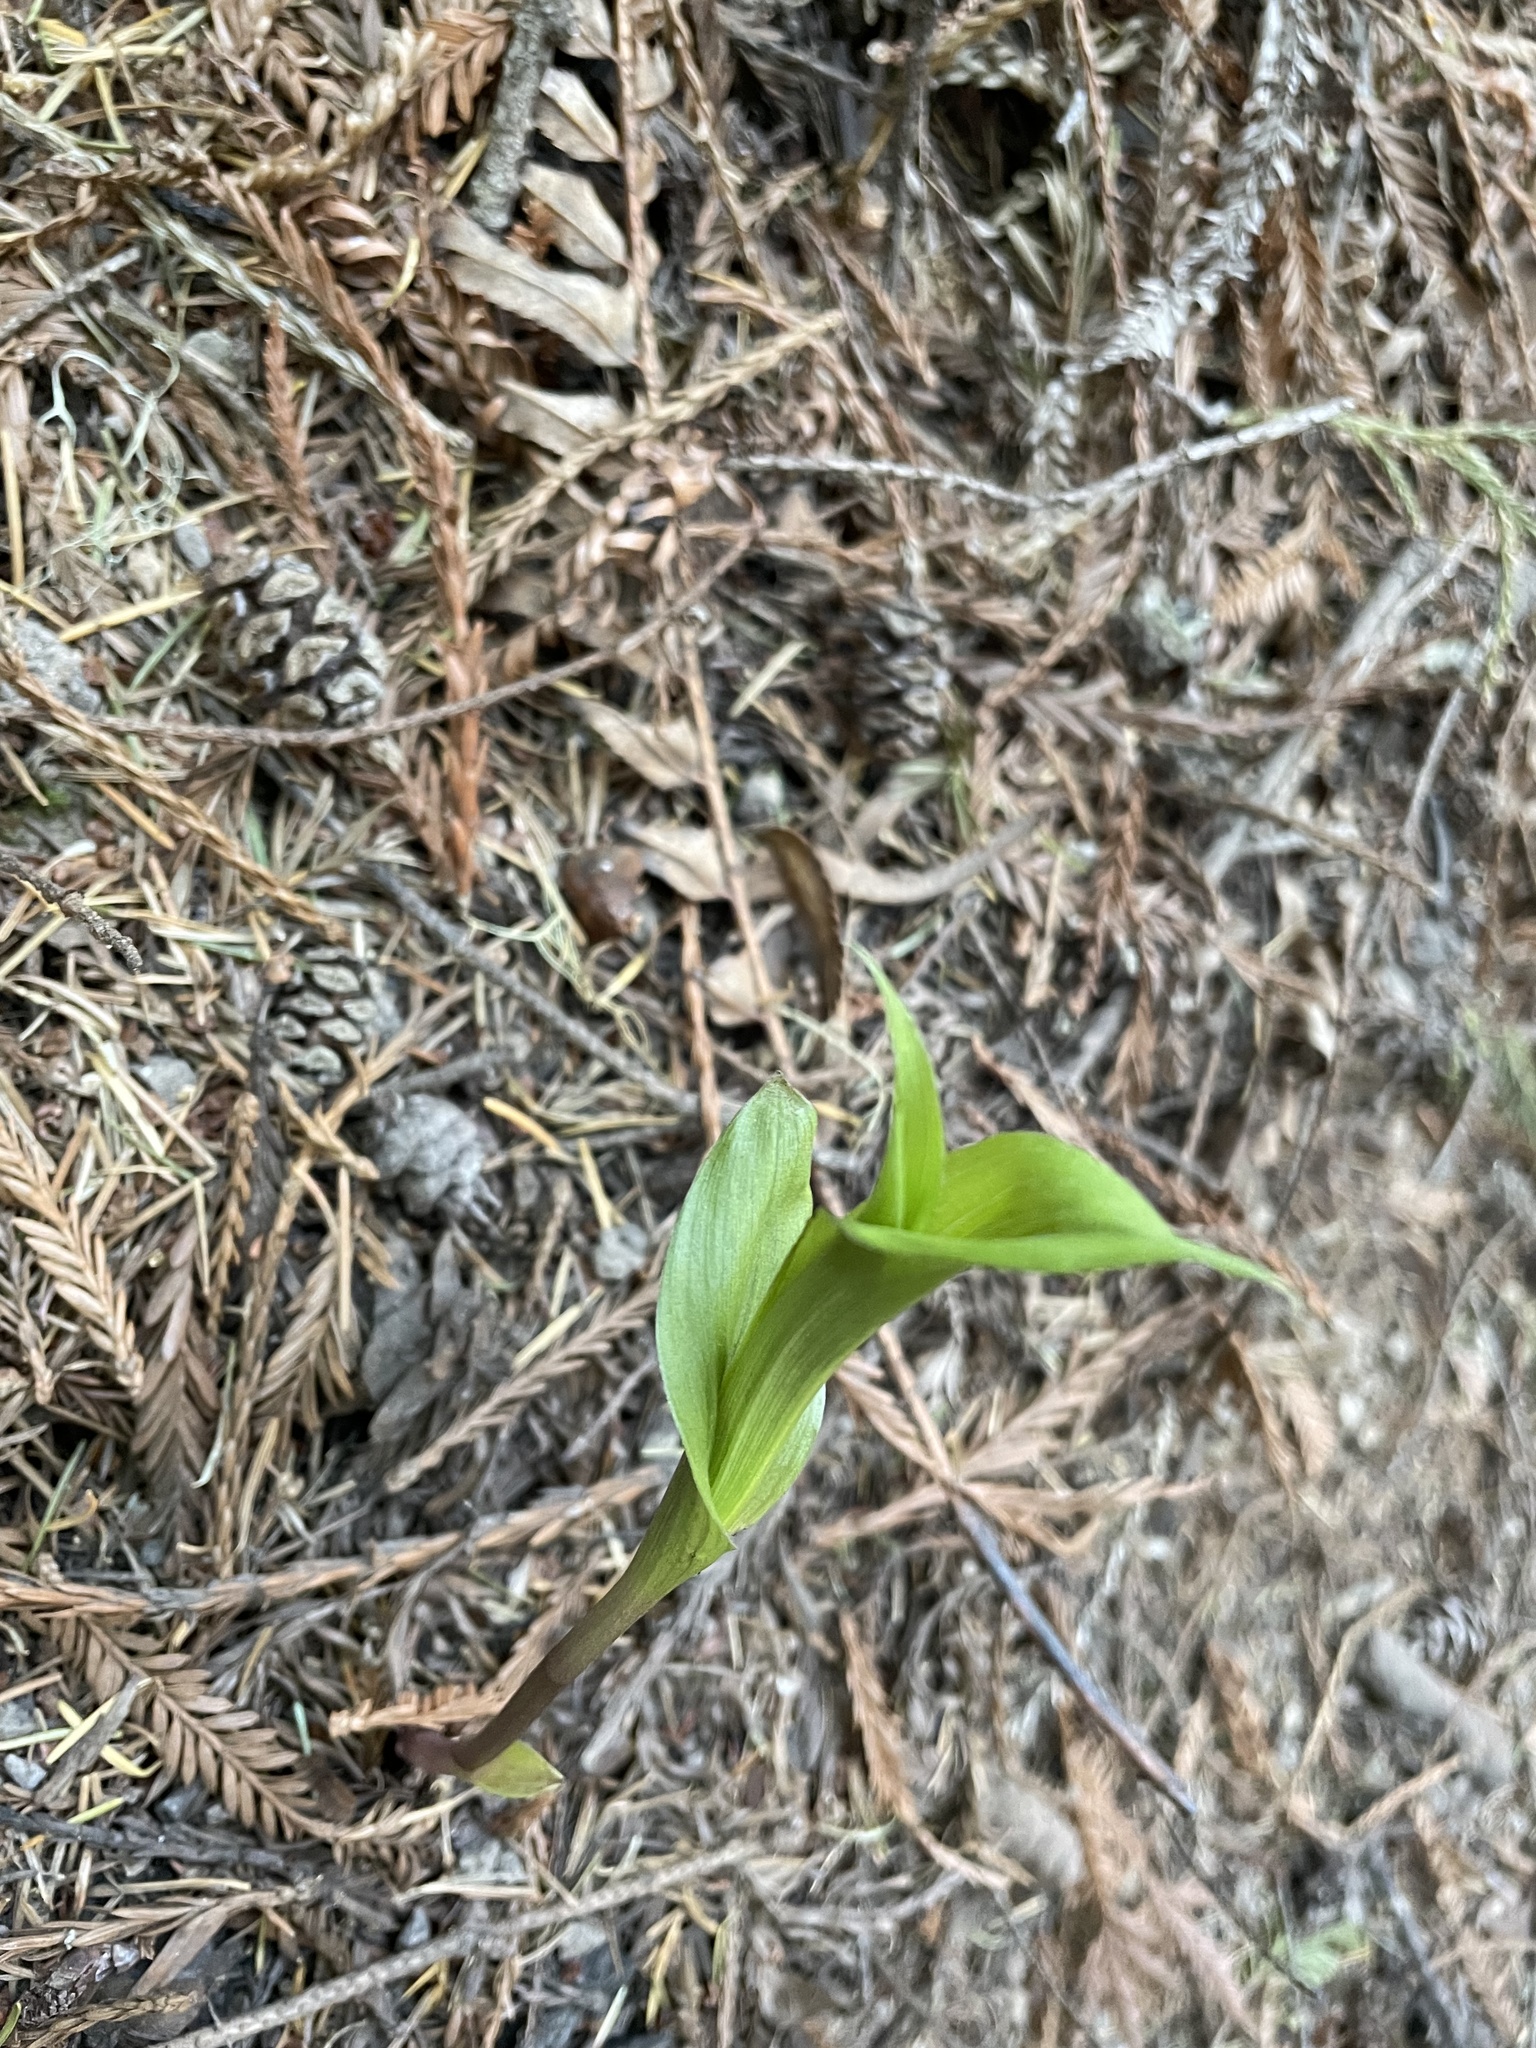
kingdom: Plantae
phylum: Tracheophyta
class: Liliopsida
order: Asparagales
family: Orchidaceae
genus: Epipactis
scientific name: Epipactis helleborine
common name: Broad-leaved helleborine
